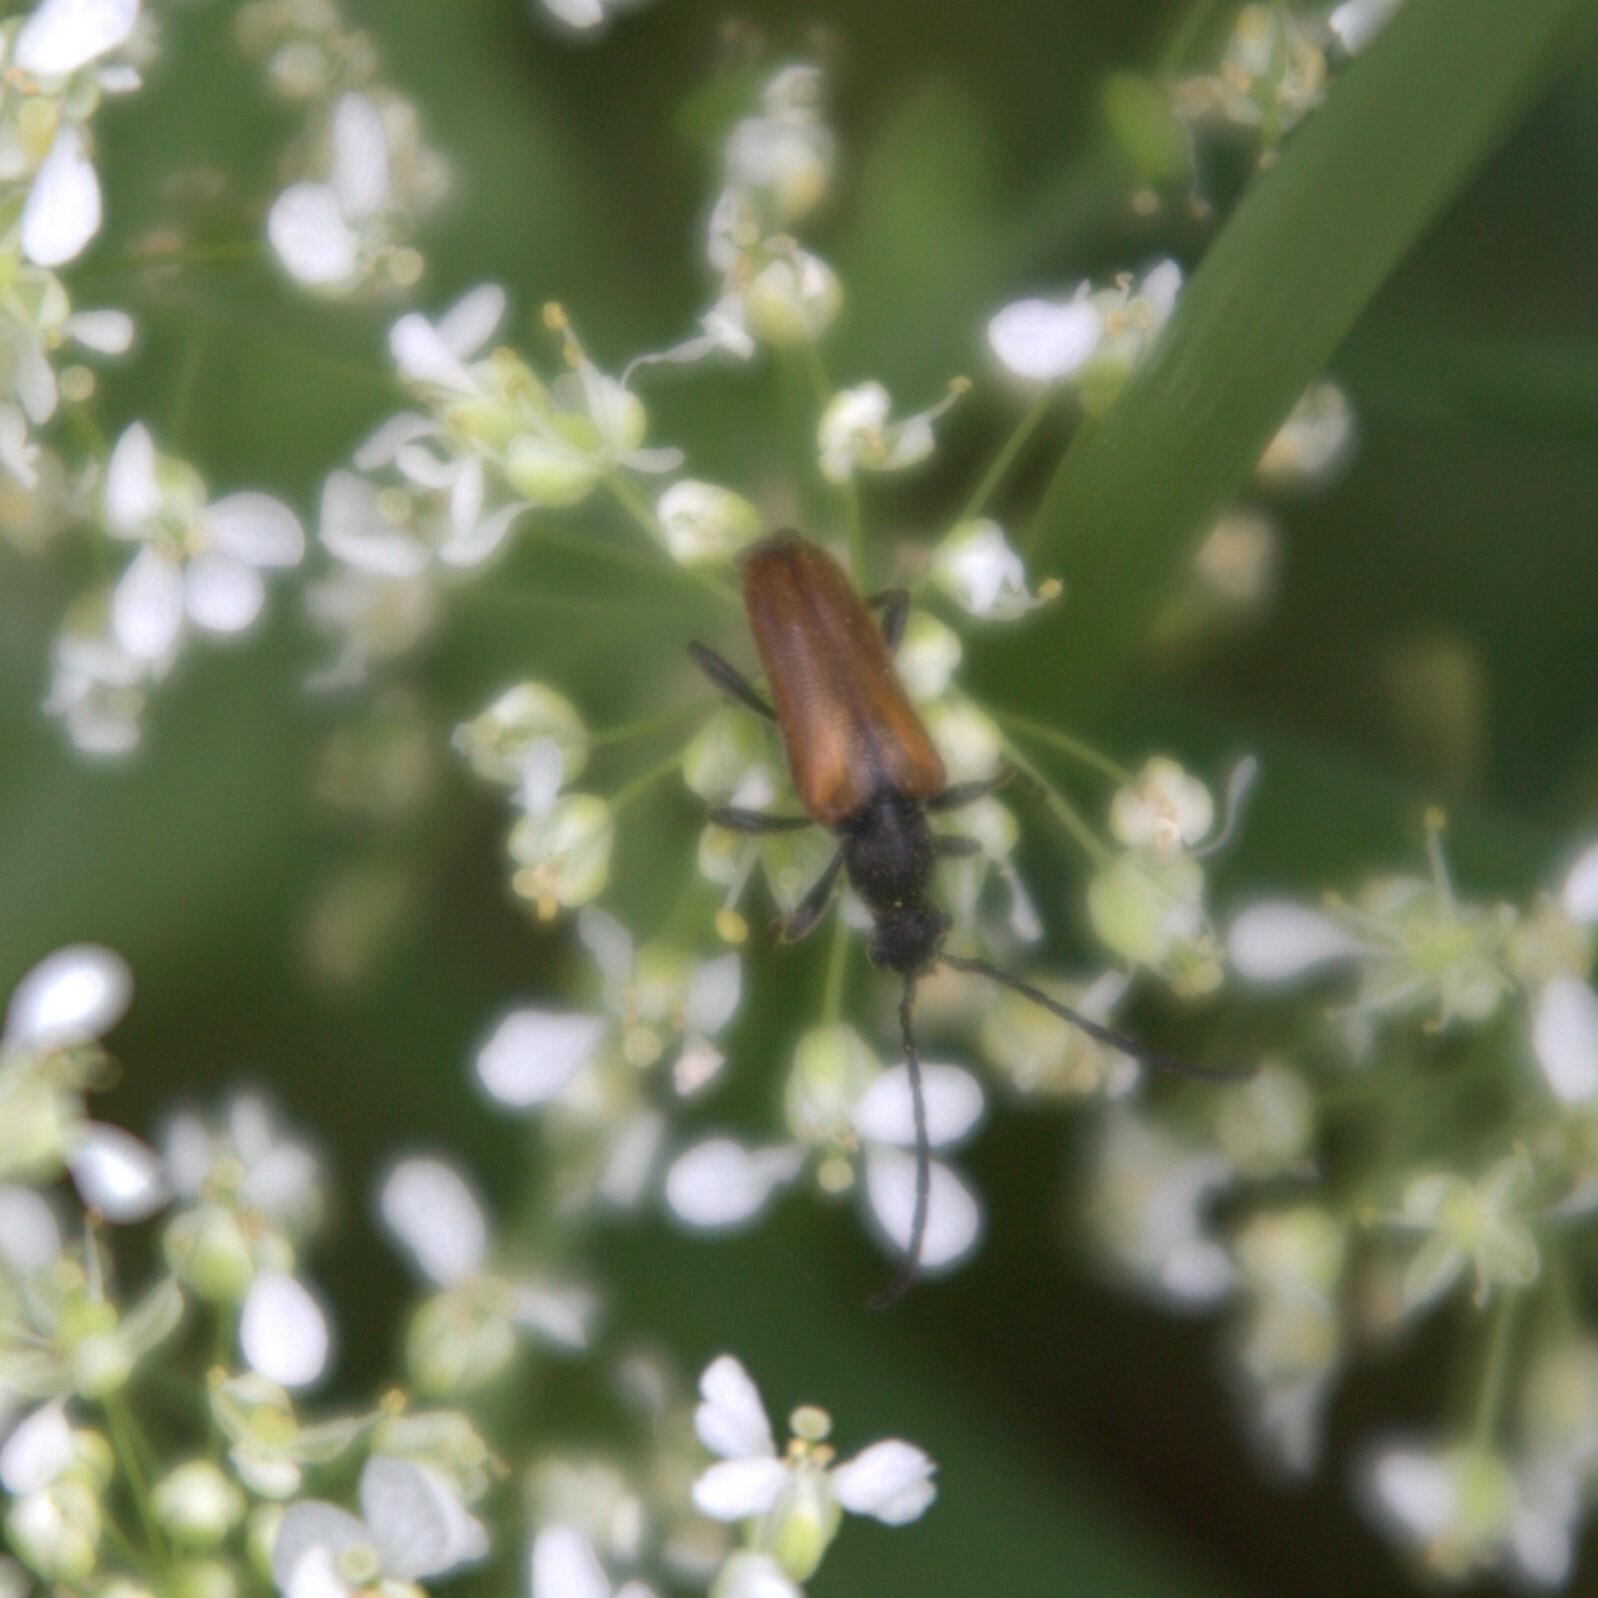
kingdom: Animalia
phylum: Arthropoda
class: Insecta
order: Coleoptera
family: Cerambycidae
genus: Pseudovadonia
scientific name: Pseudovadonia livida
